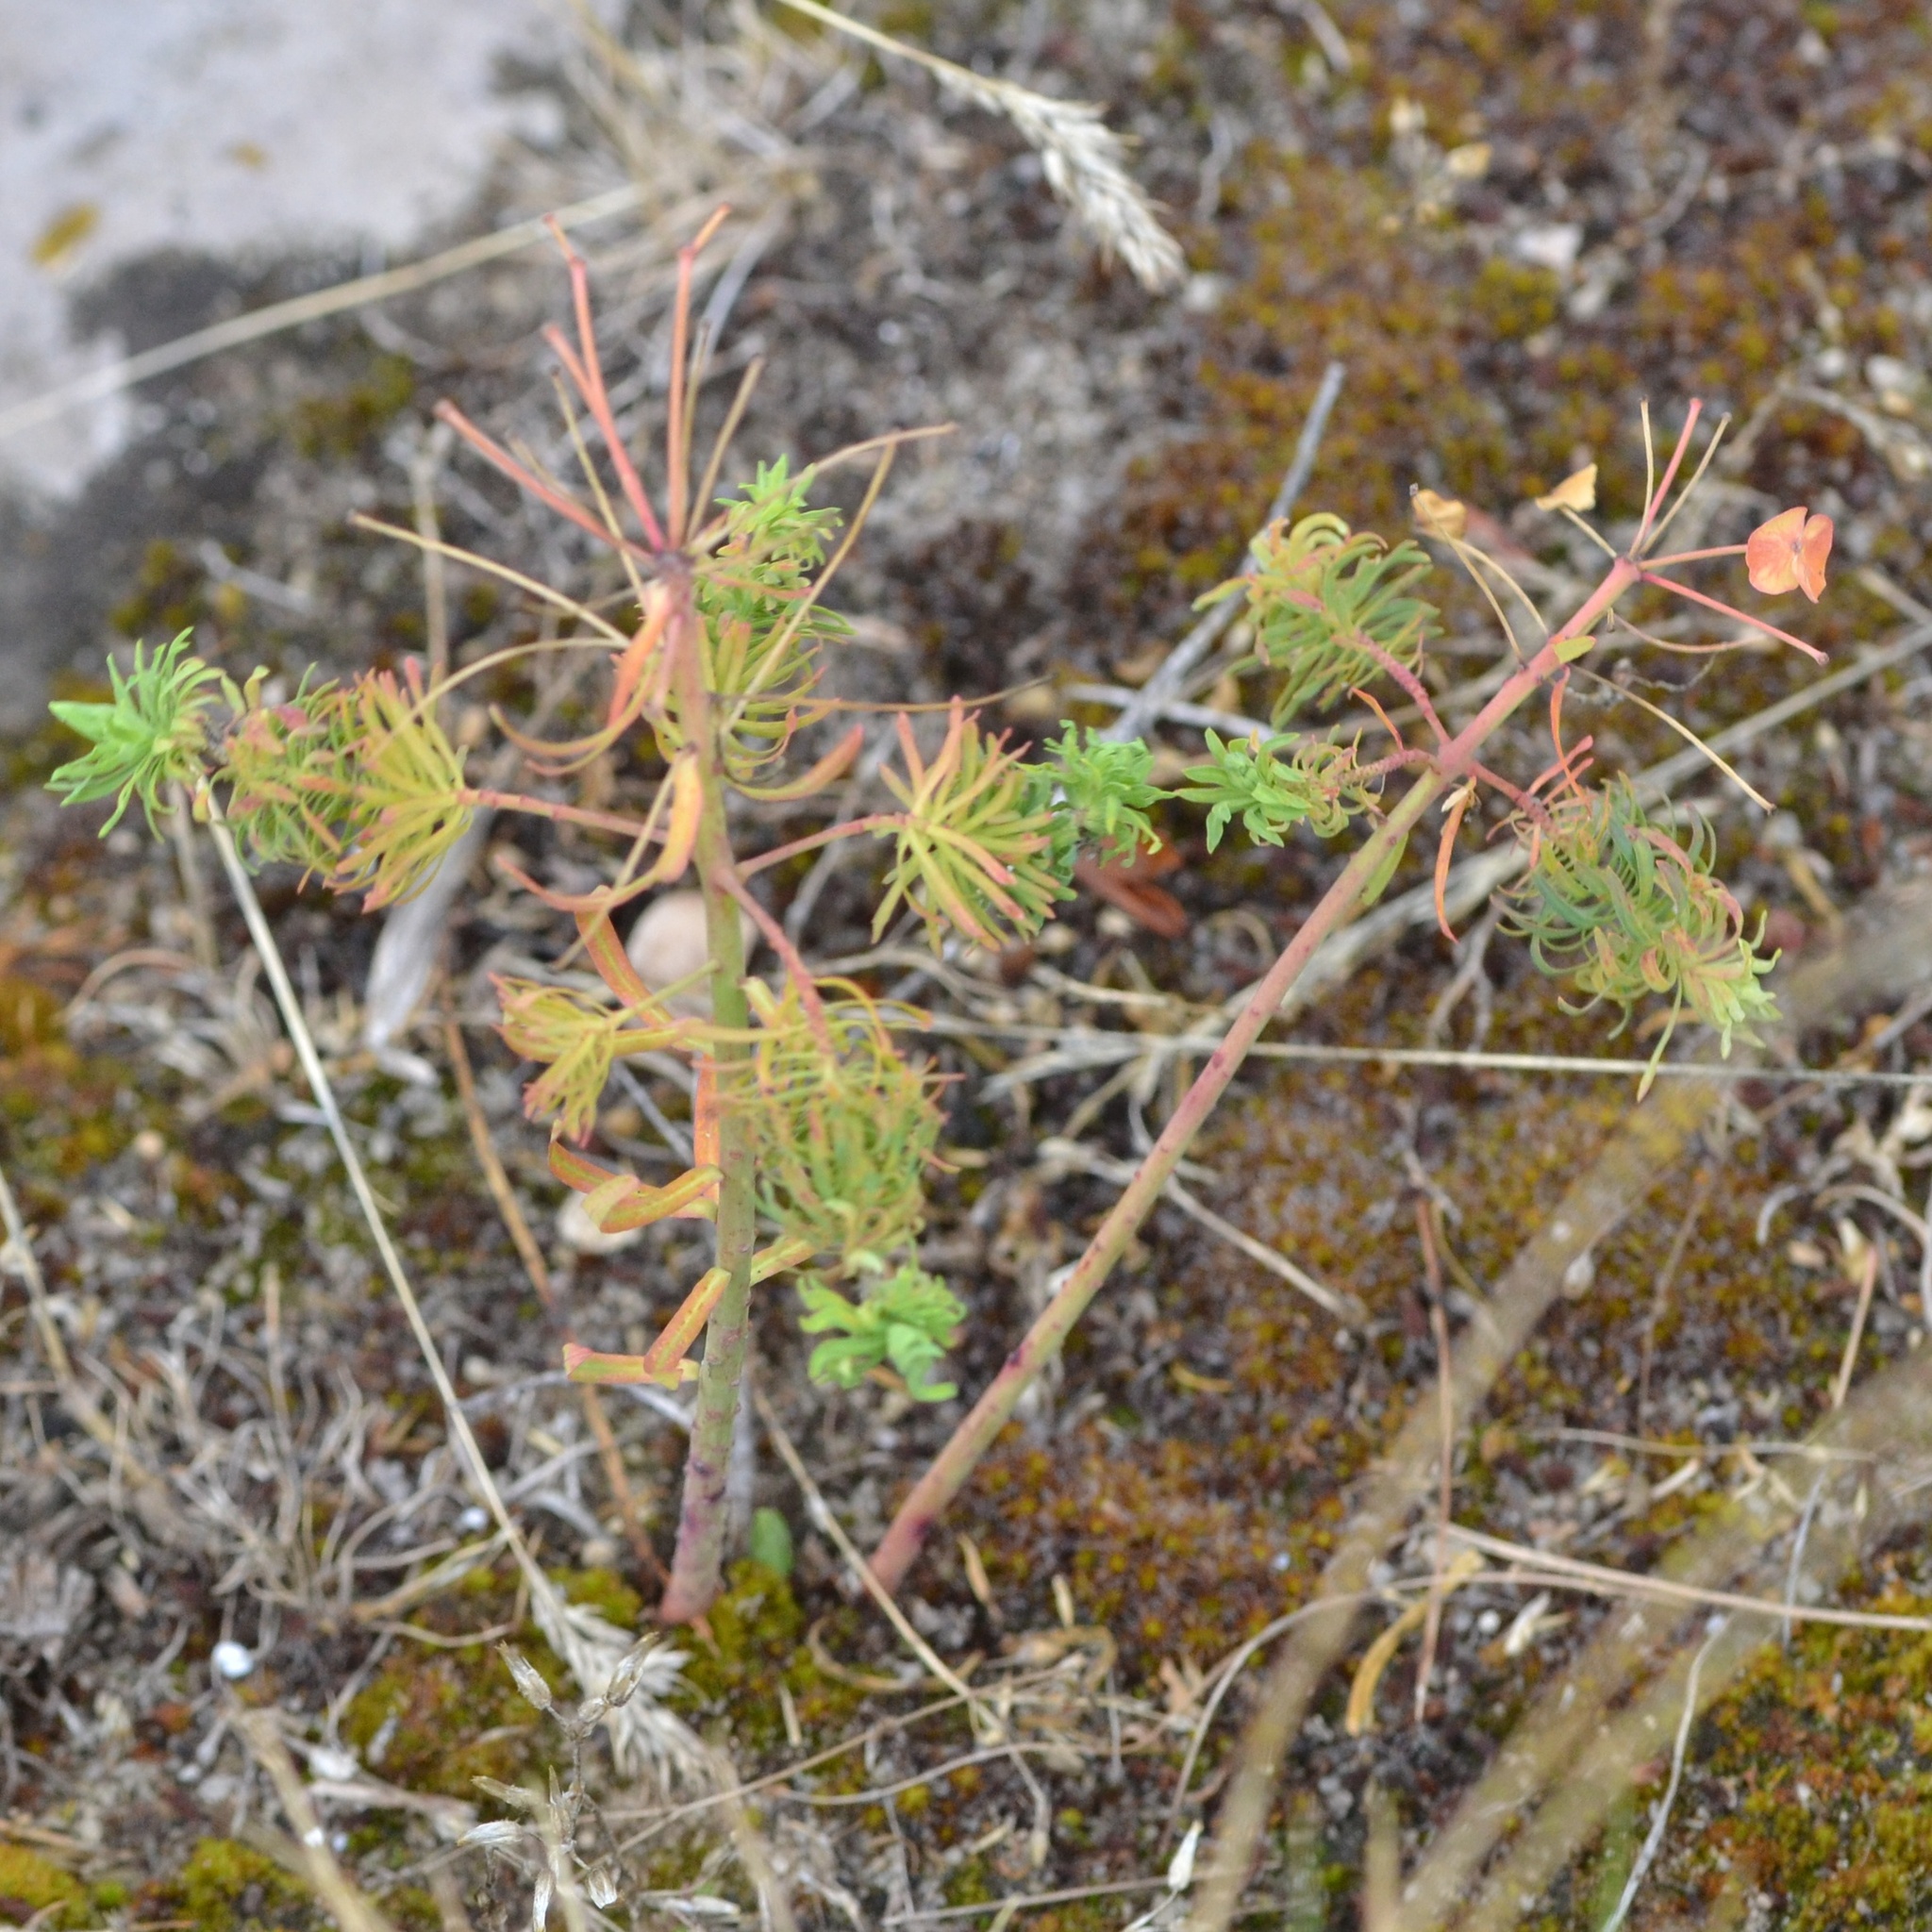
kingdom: Plantae
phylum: Tracheophyta
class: Magnoliopsida
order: Malpighiales
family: Euphorbiaceae
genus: Euphorbia
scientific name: Euphorbia cyparissias
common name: Cypress spurge
